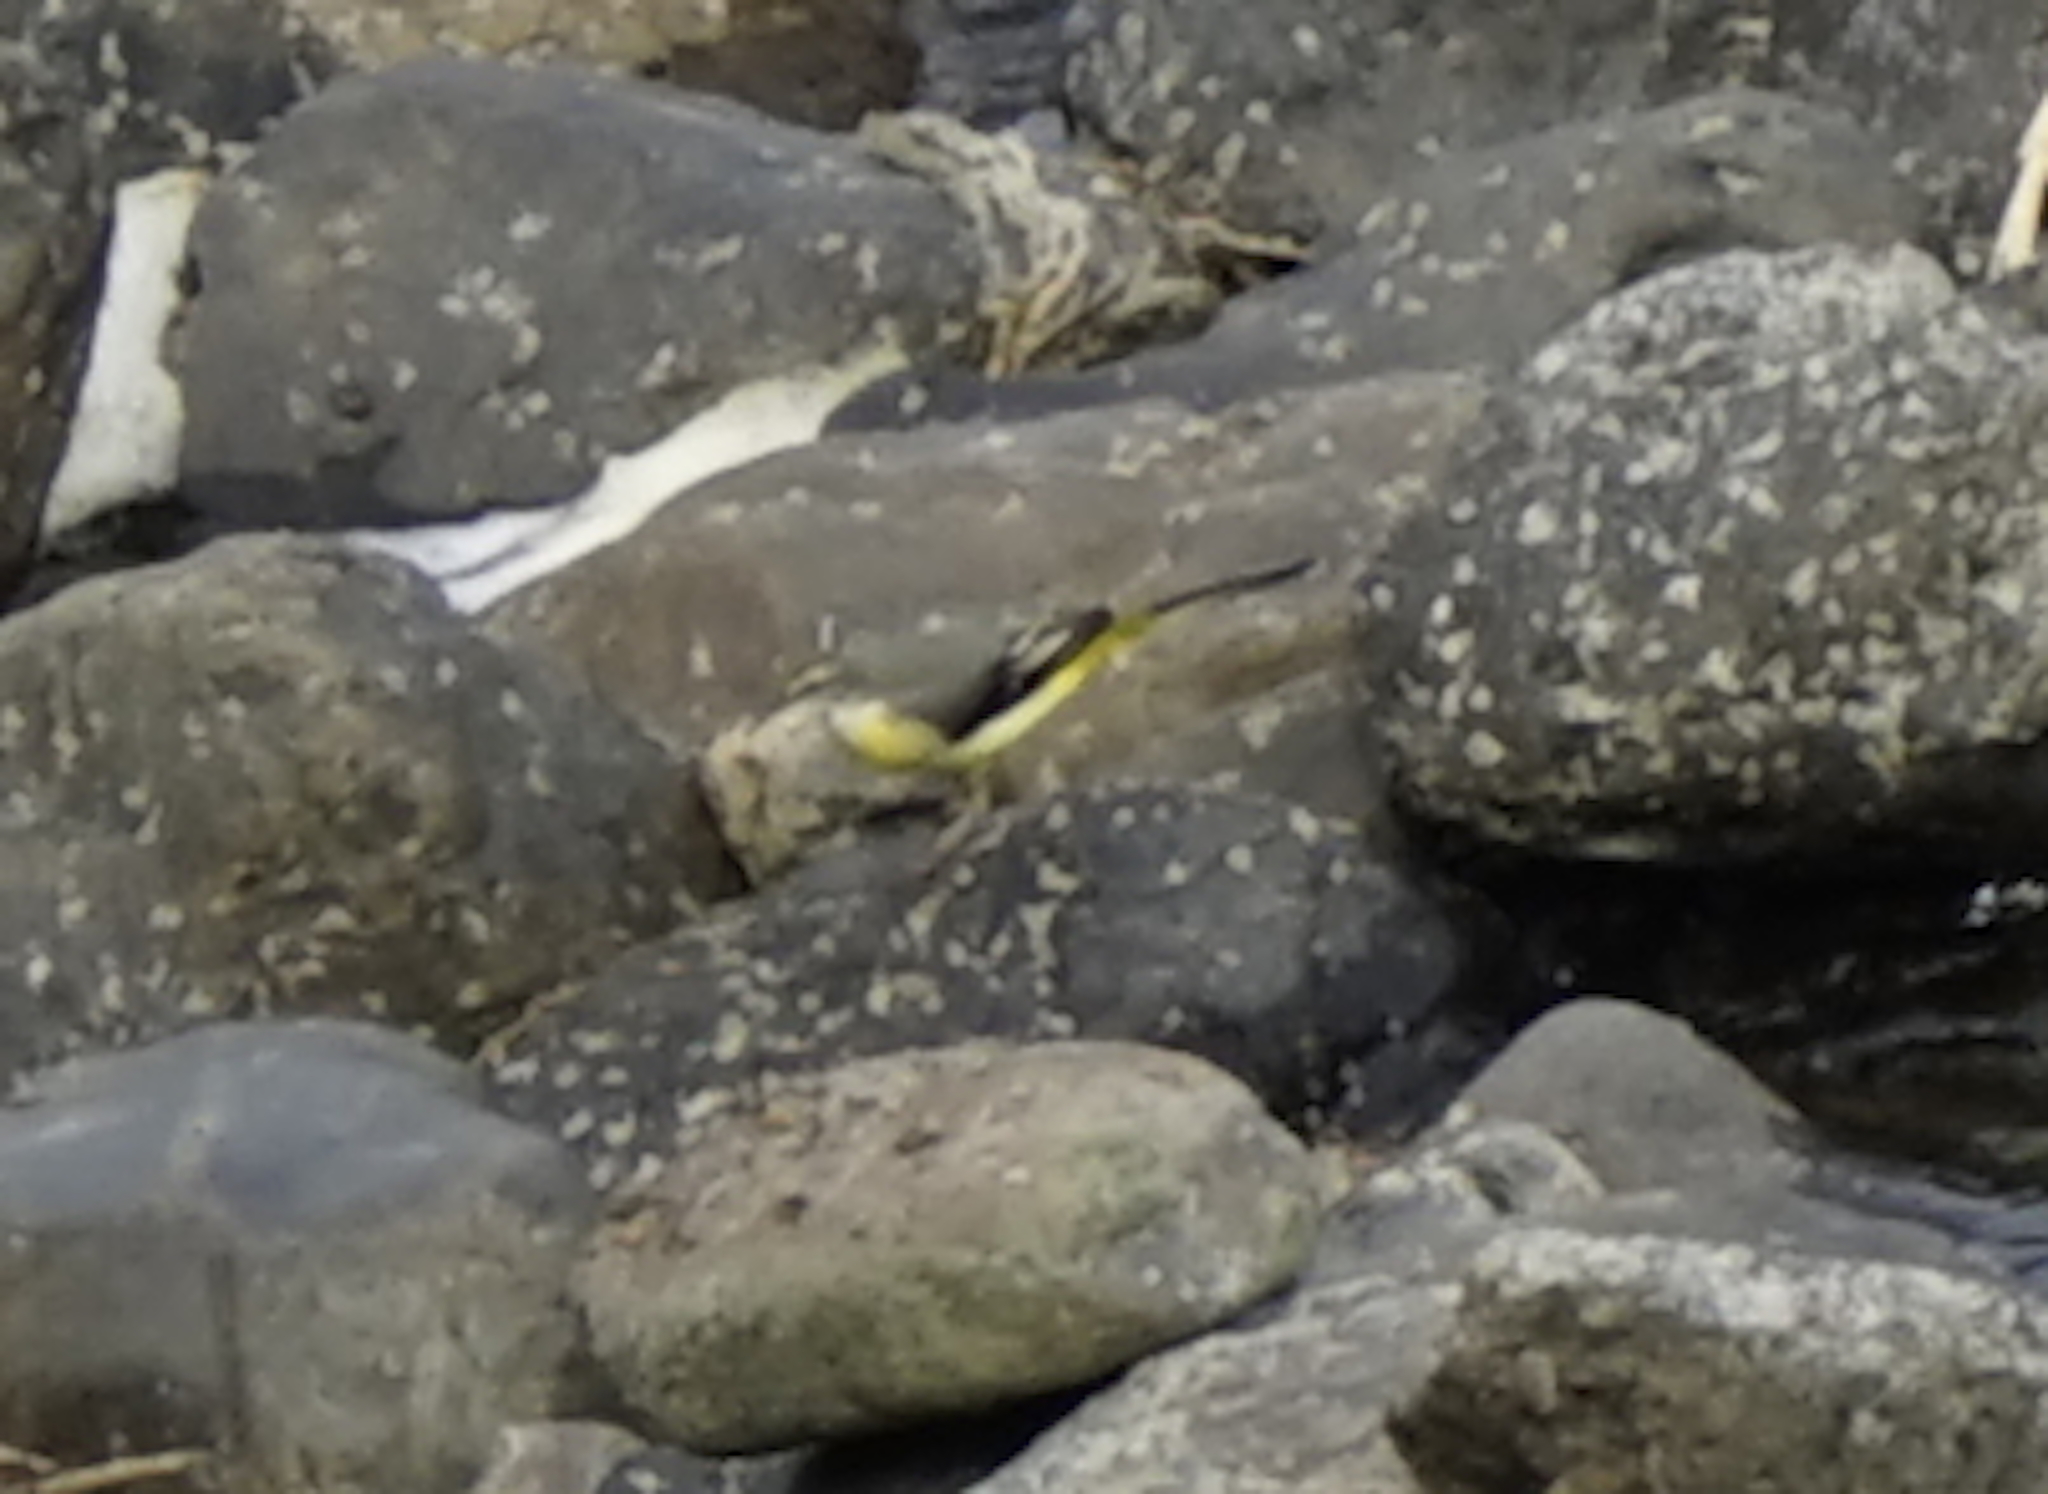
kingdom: Animalia
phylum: Chordata
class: Aves
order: Passeriformes
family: Motacillidae
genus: Motacilla
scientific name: Motacilla cinerea
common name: Grey wagtail
